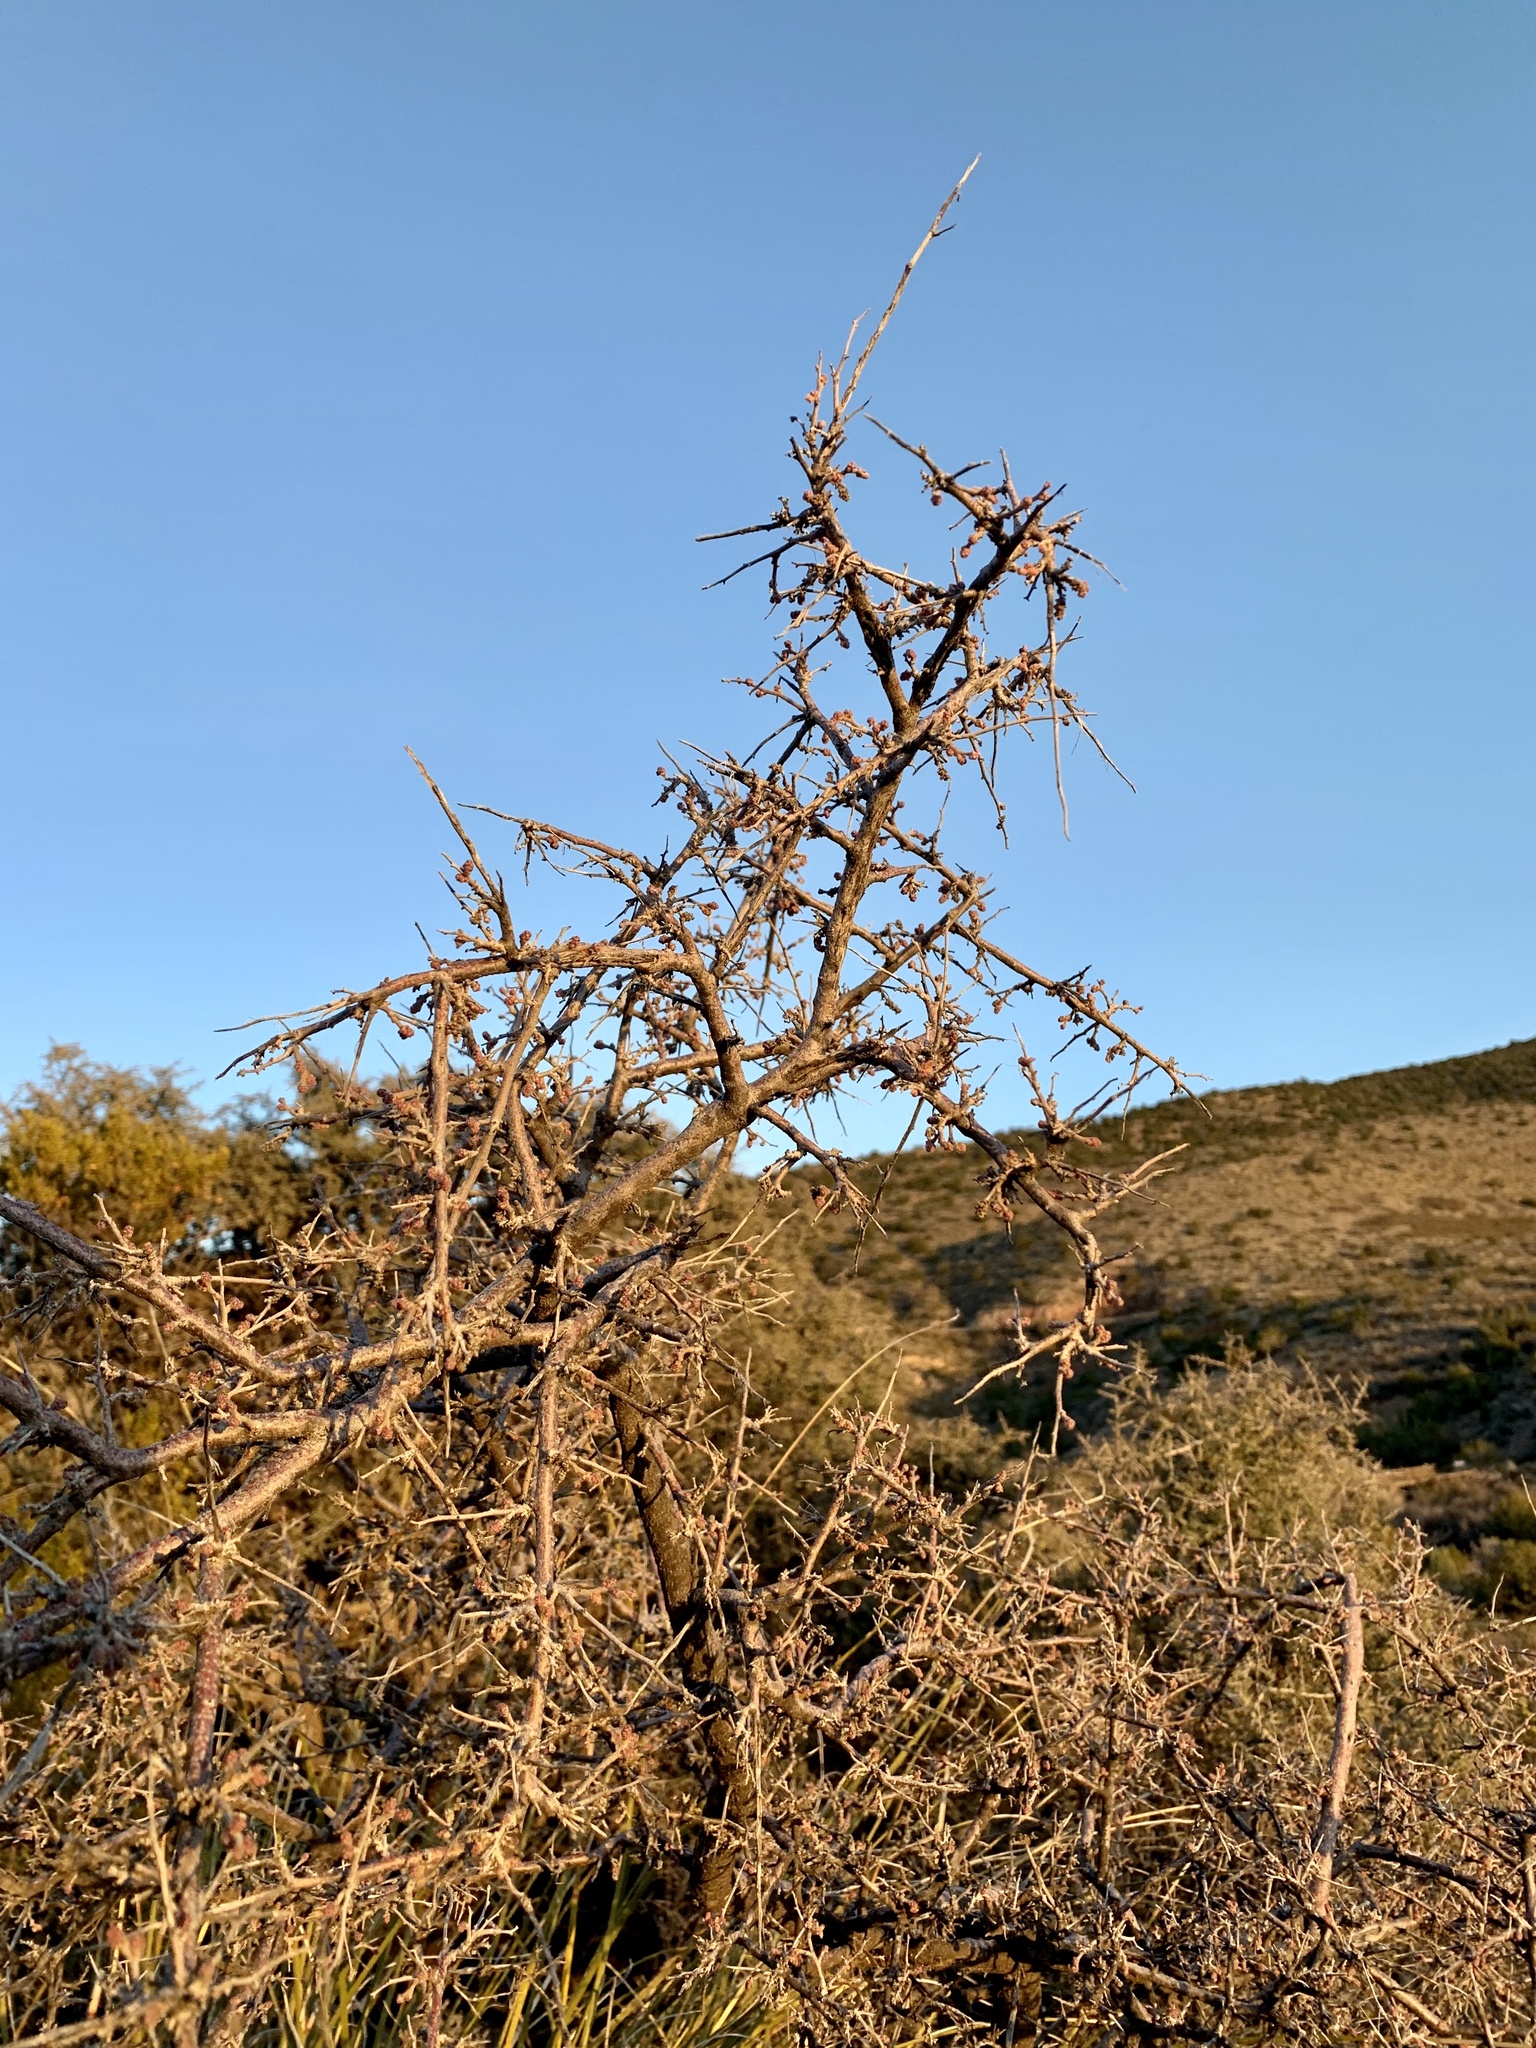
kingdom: Plantae
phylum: Tracheophyta
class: Magnoliopsida
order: Sapindales
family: Anacardiaceae
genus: Rhus
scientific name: Rhus microphylla
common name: Desert sumac
